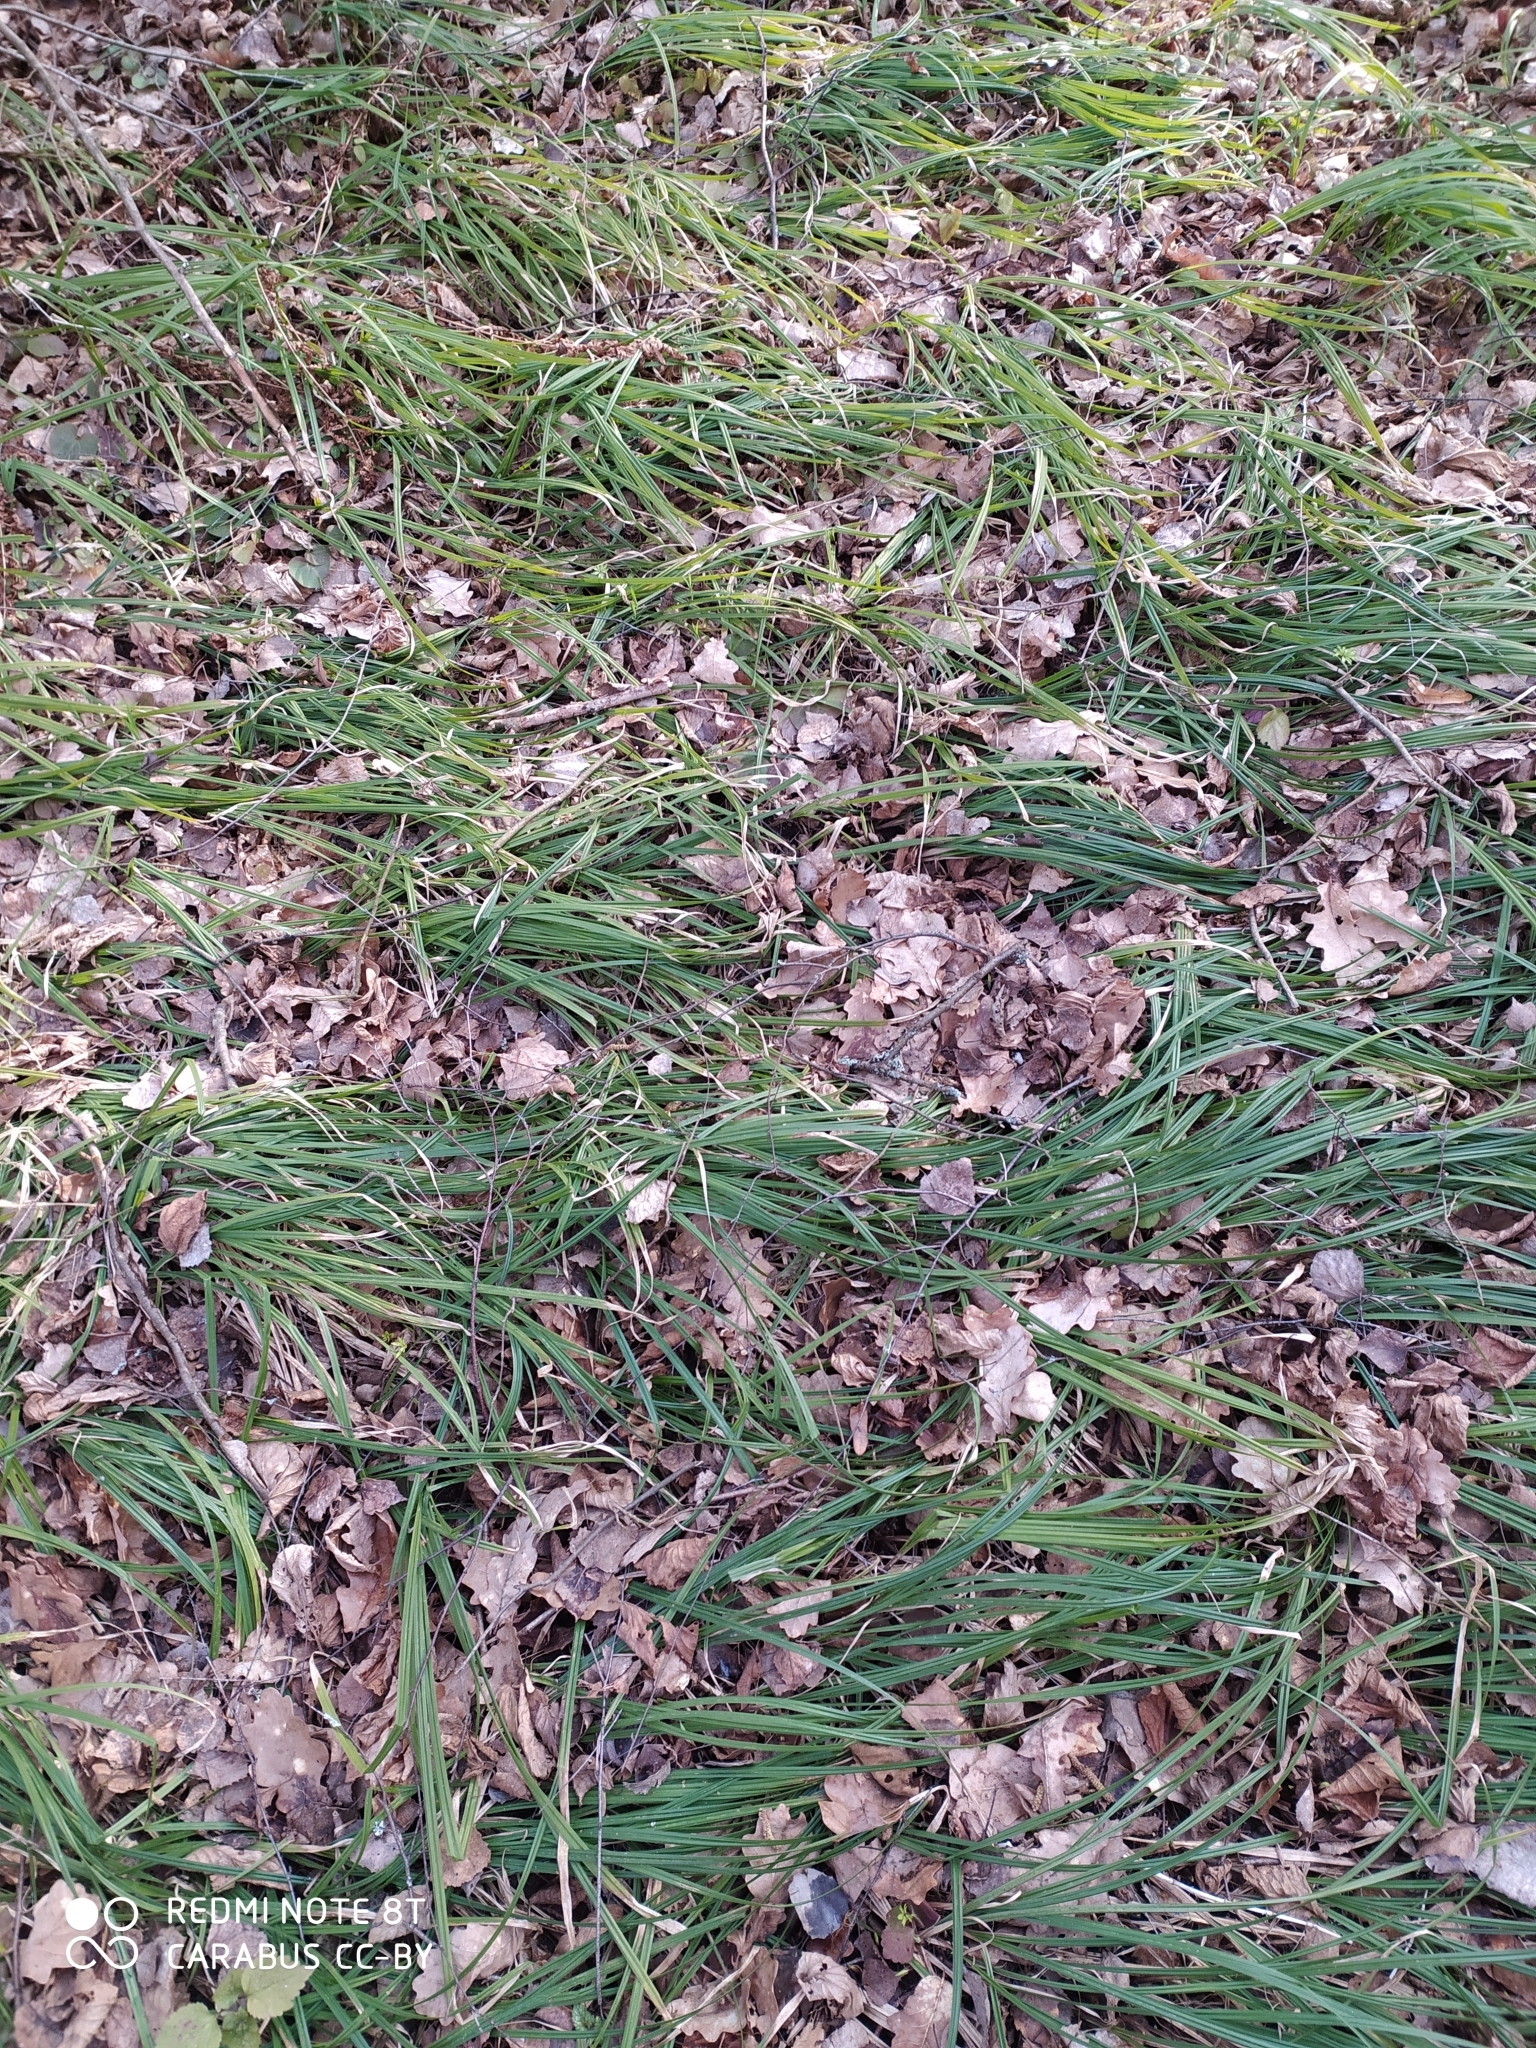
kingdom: Plantae
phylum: Tracheophyta
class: Liliopsida
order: Poales
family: Cyperaceae
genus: Carex
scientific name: Carex pilosa
